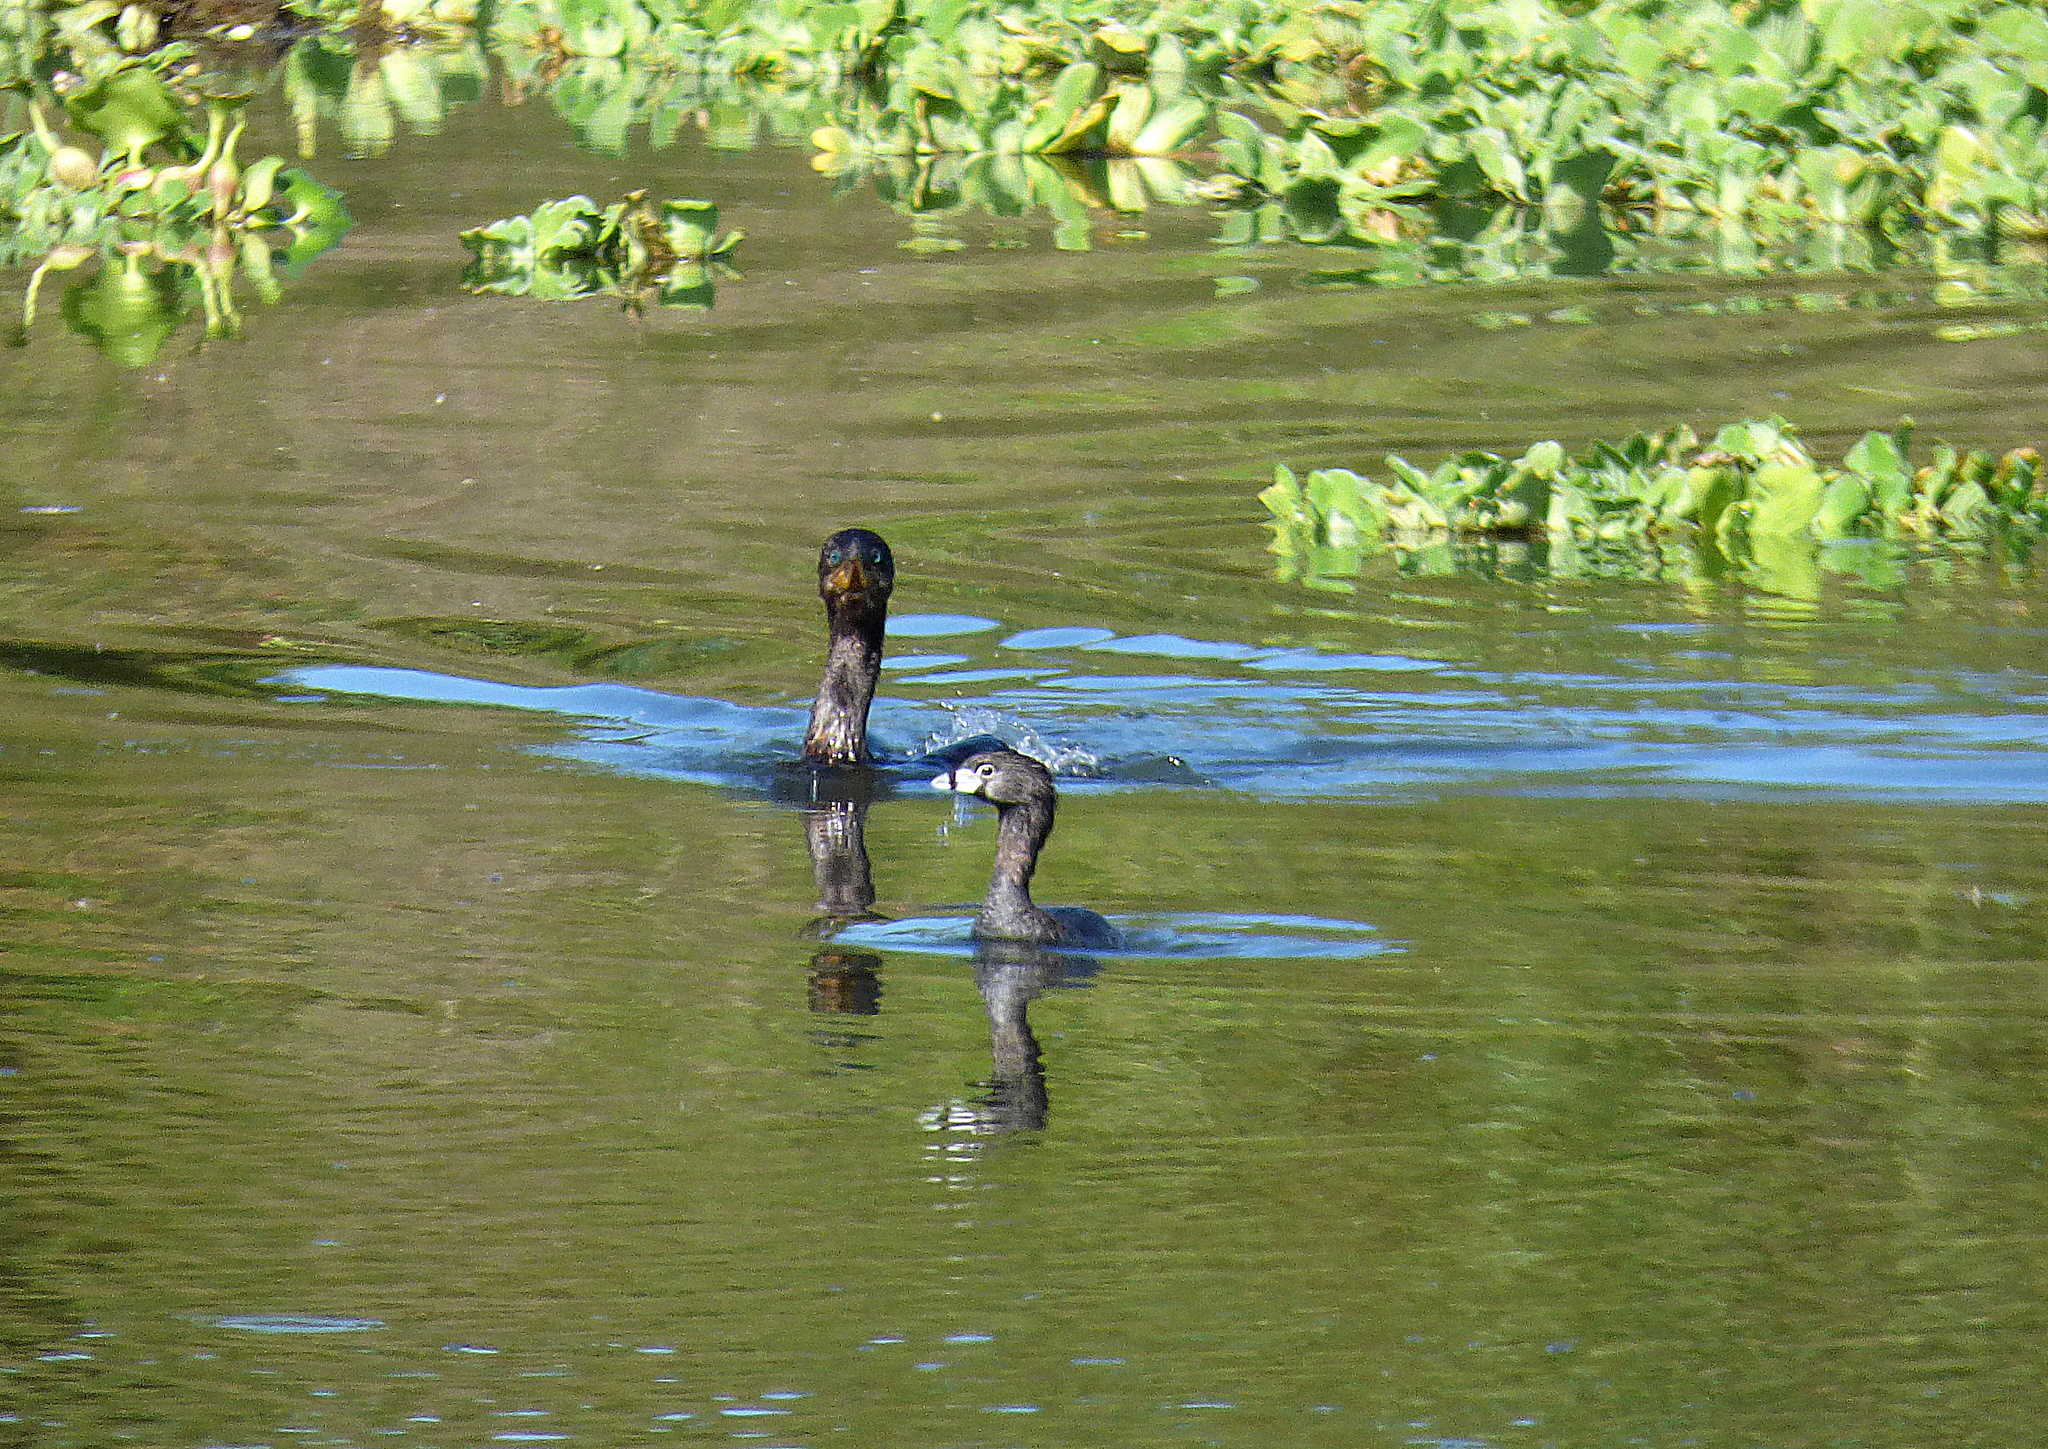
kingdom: Animalia
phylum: Chordata
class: Aves
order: Podicipediformes
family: Podicipedidae
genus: Podilymbus
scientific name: Podilymbus podiceps
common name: Pied-billed grebe
